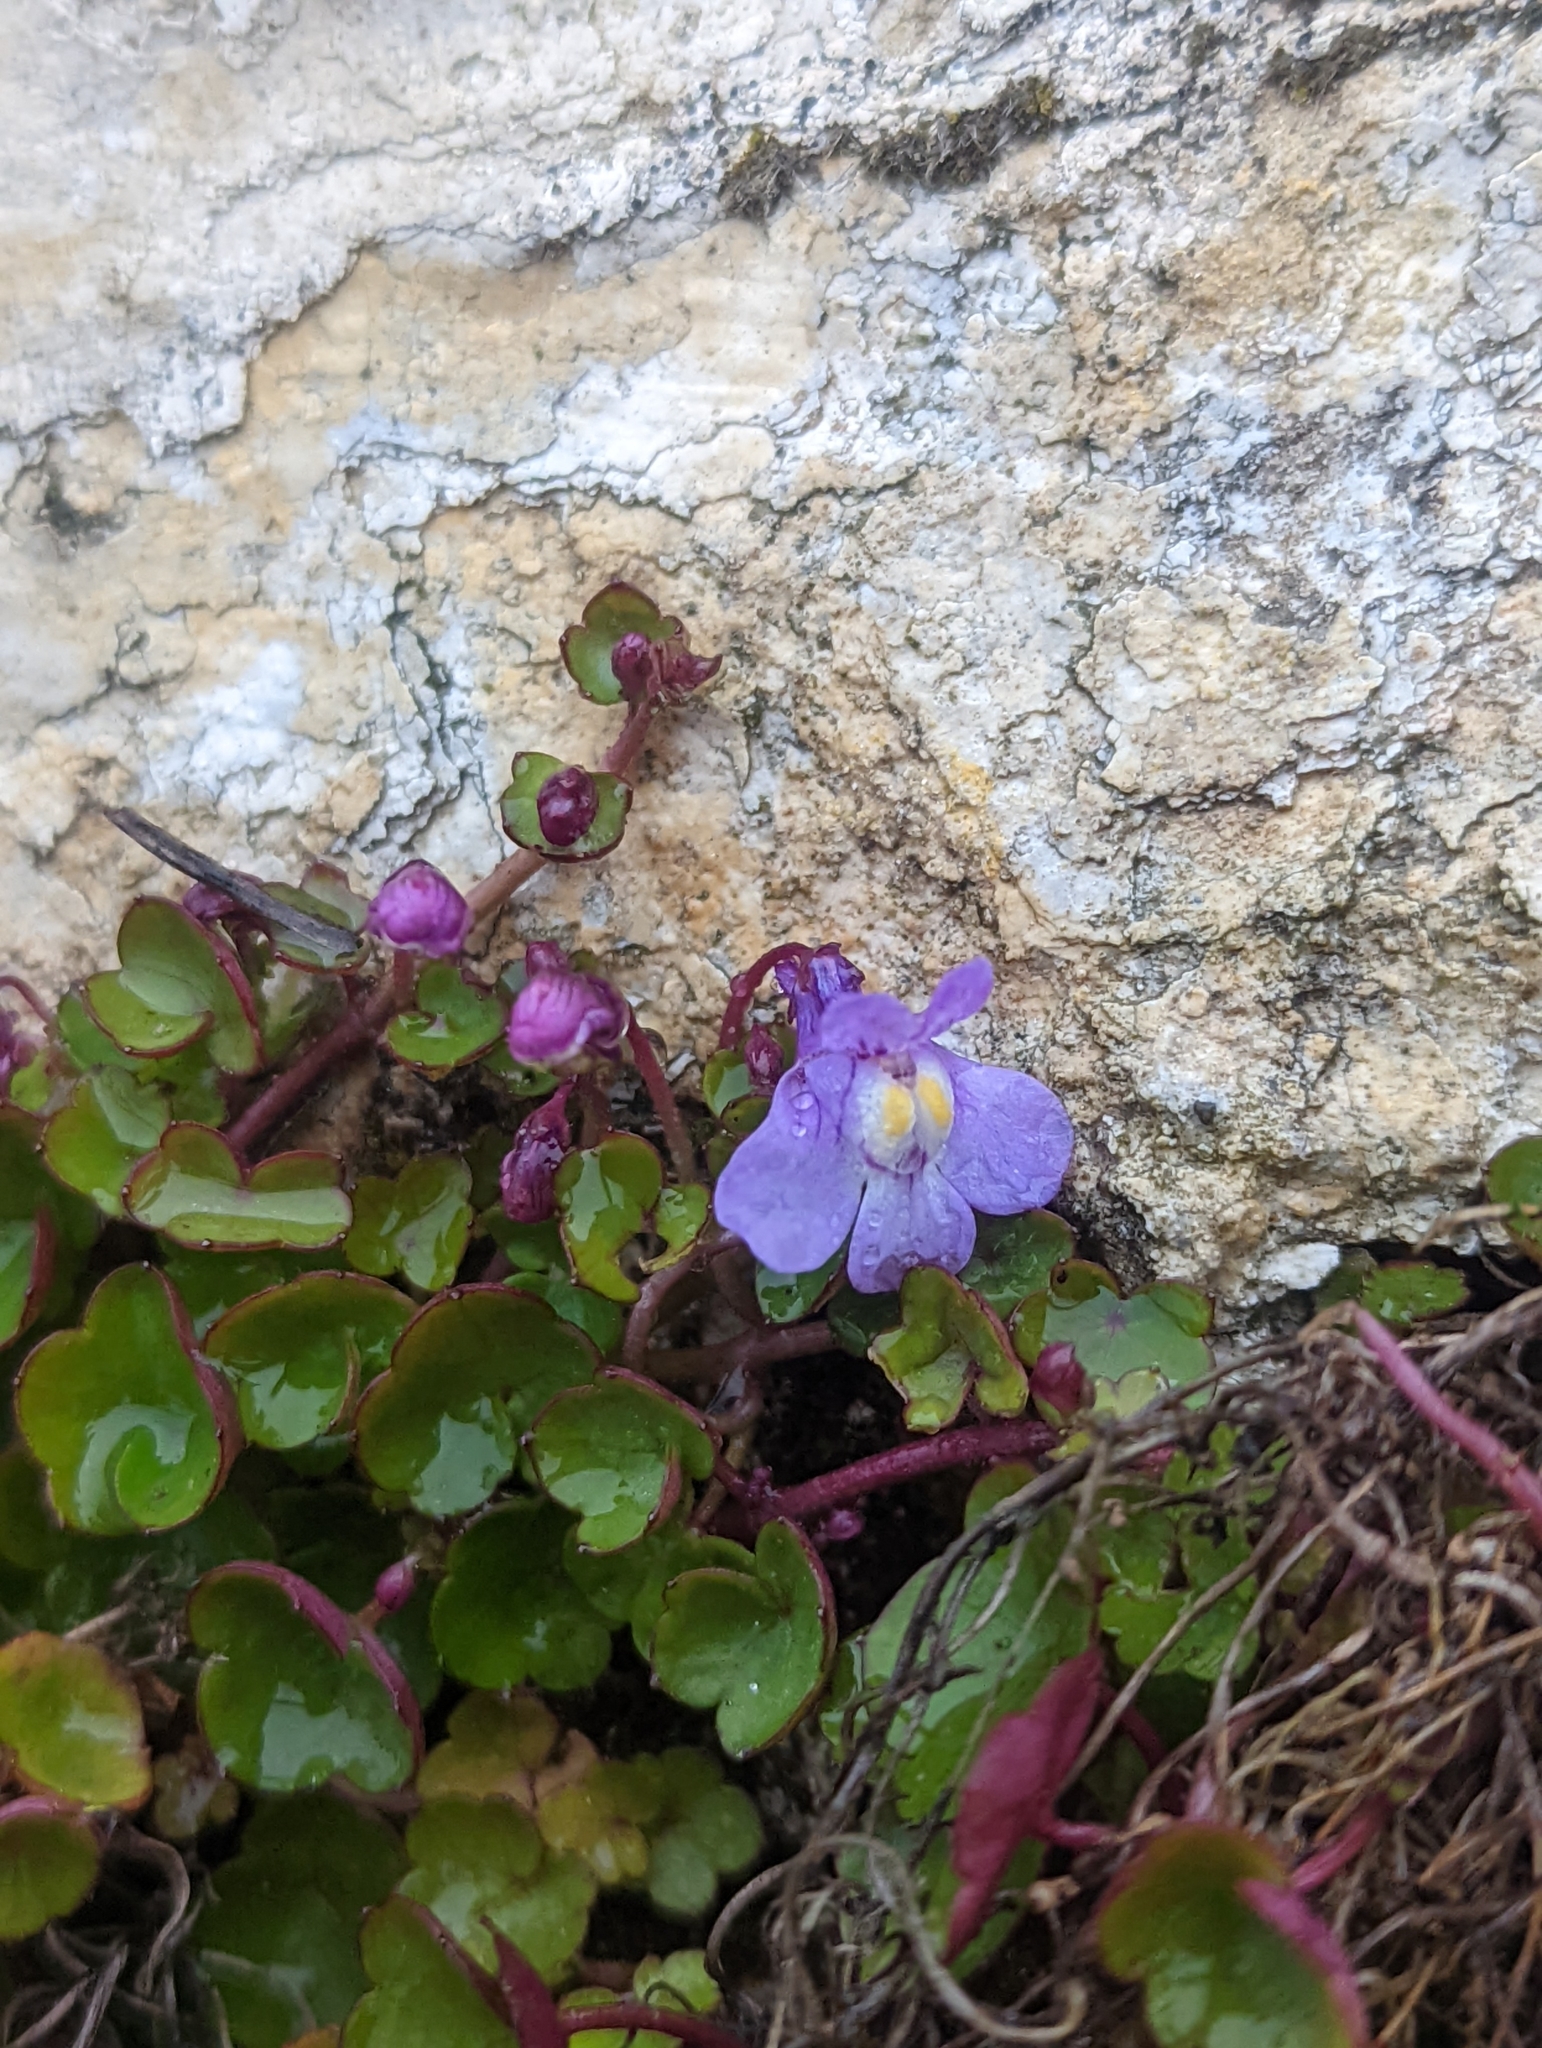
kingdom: Plantae
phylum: Tracheophyta
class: Magnoliopsida
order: Lamiales
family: Plantaginaceae
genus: Cymbalaria
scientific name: Cymbalaria muralis
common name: Ivy-leaved toadflax
